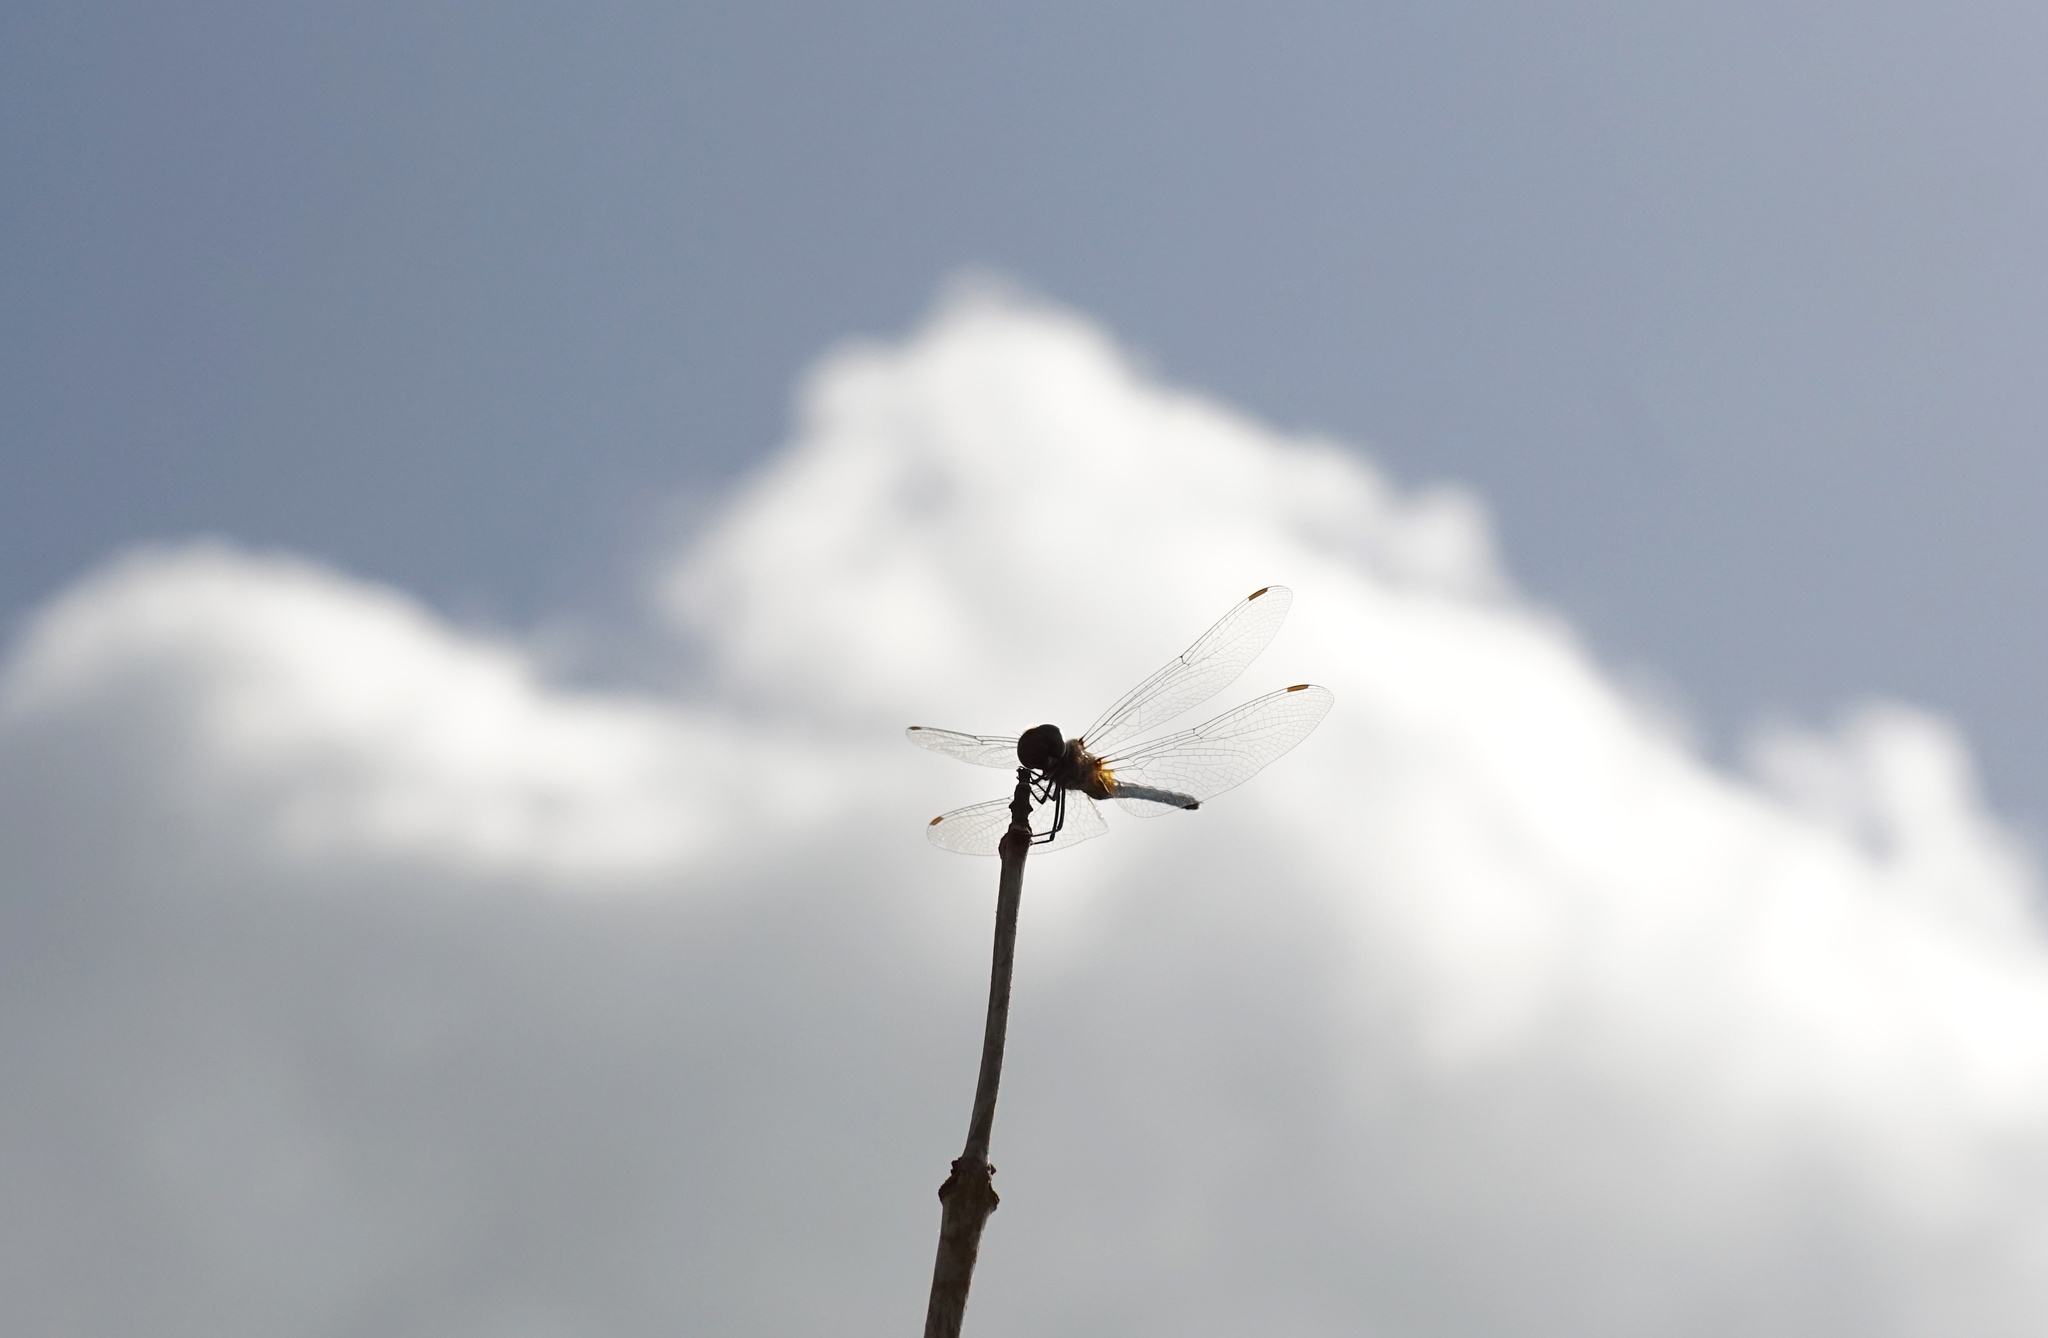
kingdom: Animalia
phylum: Arthropoda
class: Insecta
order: Odonata
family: Libellulidae
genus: Idiataphe
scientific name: Idiataphe cubensis
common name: Metallic pennant
